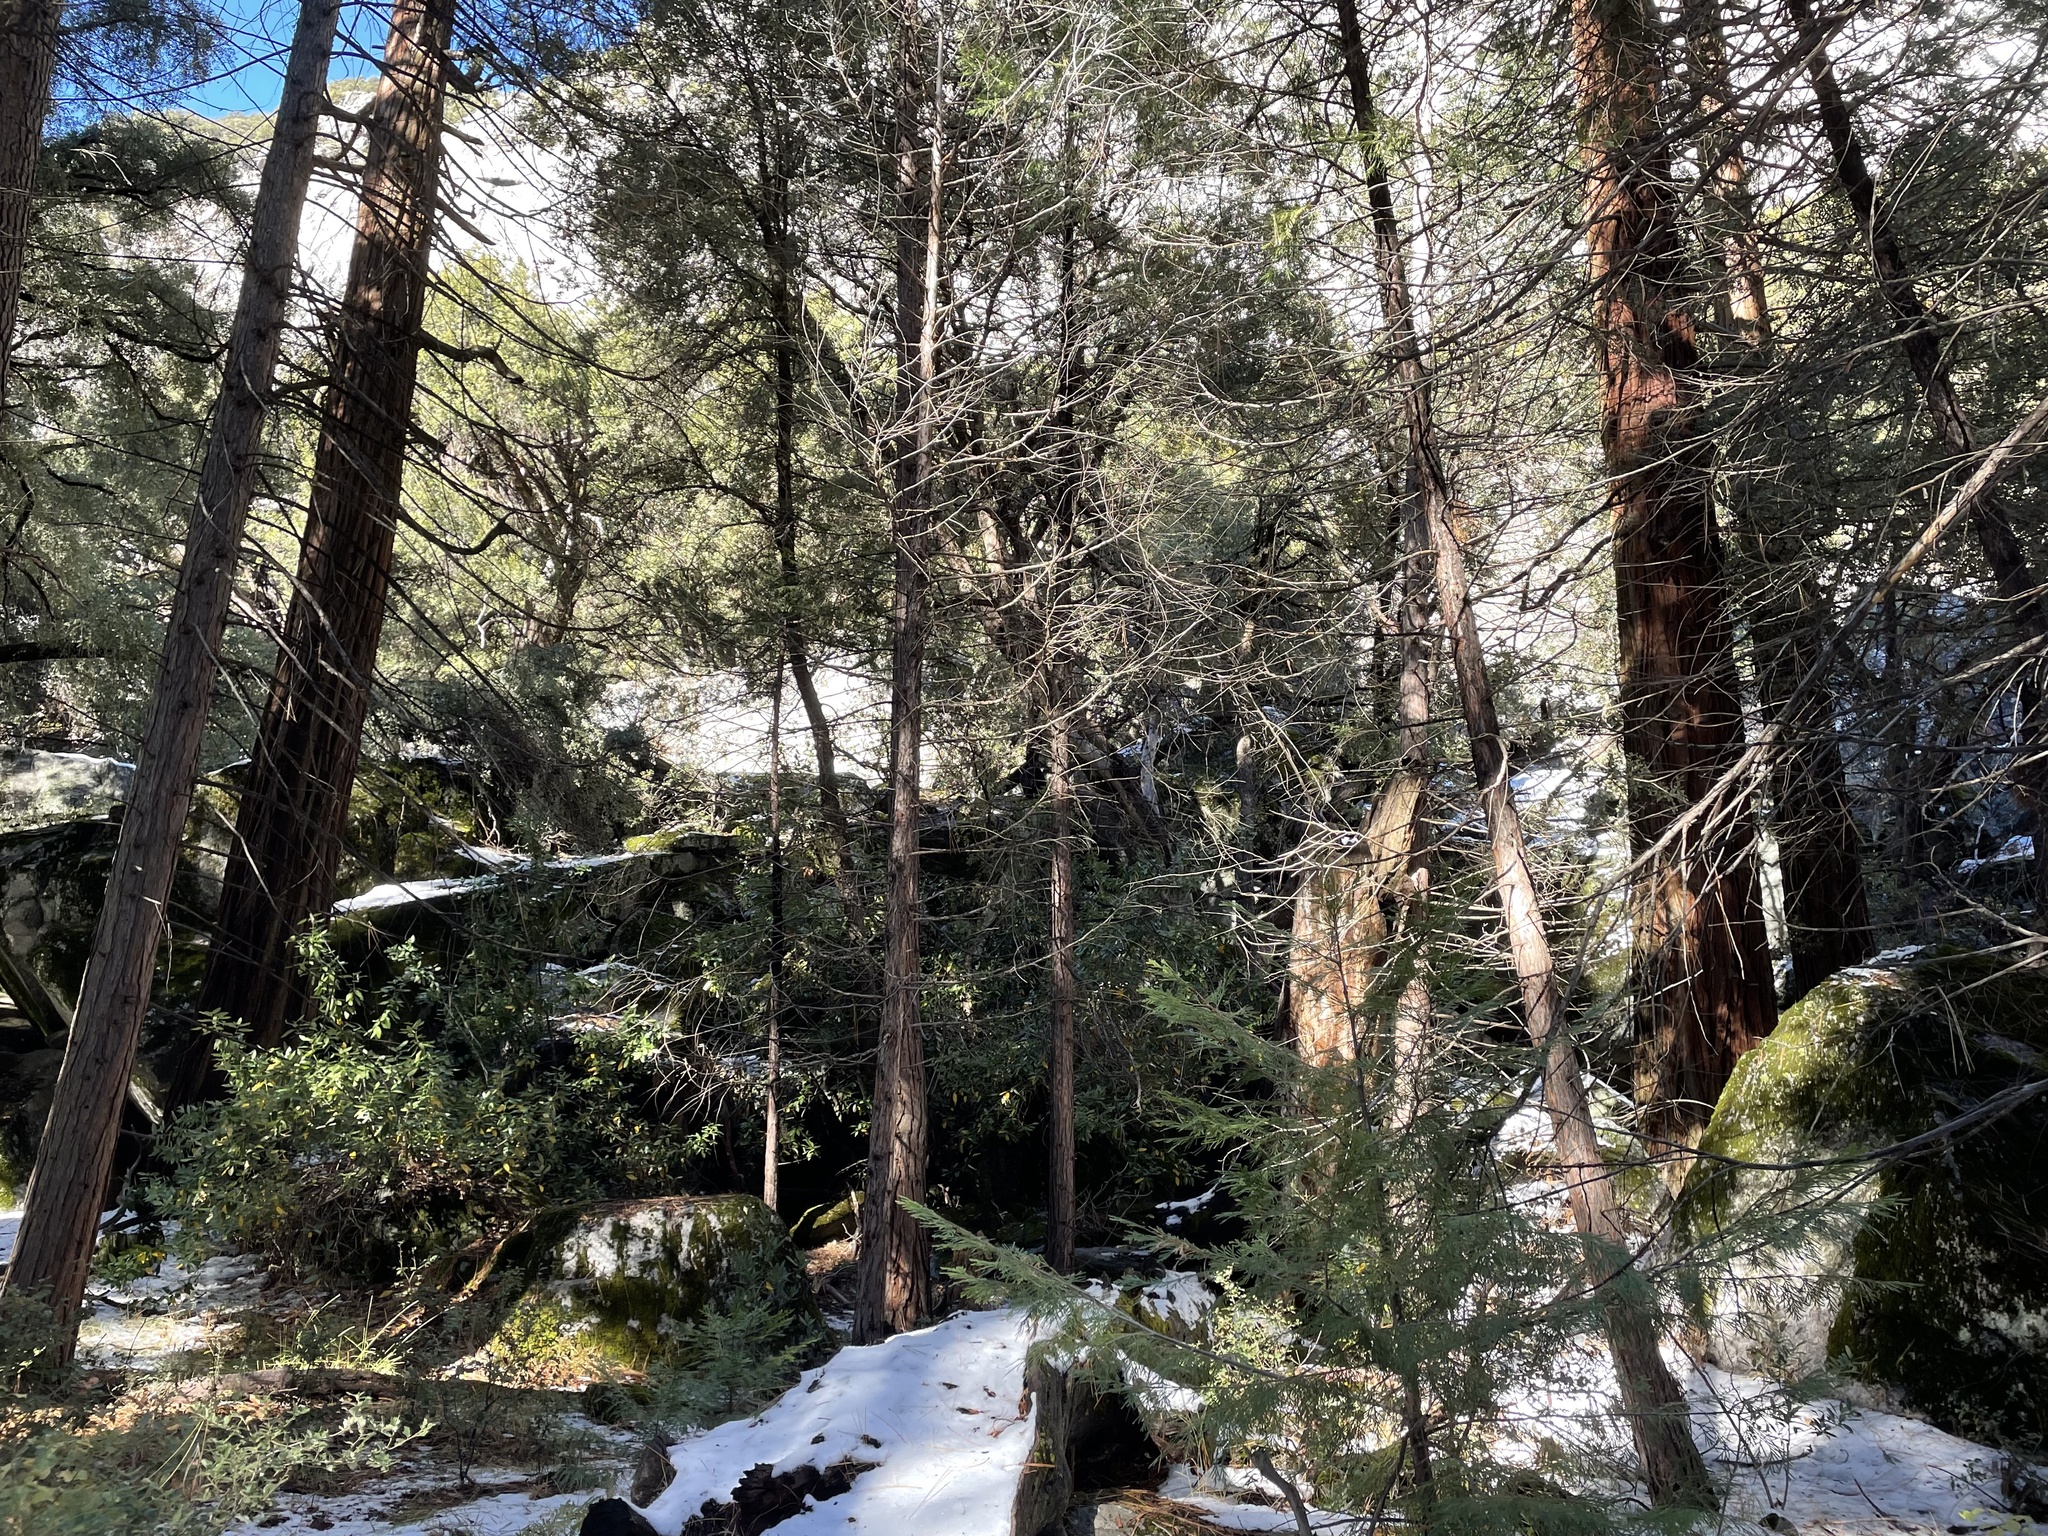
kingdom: Animalia
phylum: Chordata
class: Mammalia
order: Carnivora
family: Ursidae
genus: Ursus
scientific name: Ursus americanus
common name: American black bear
